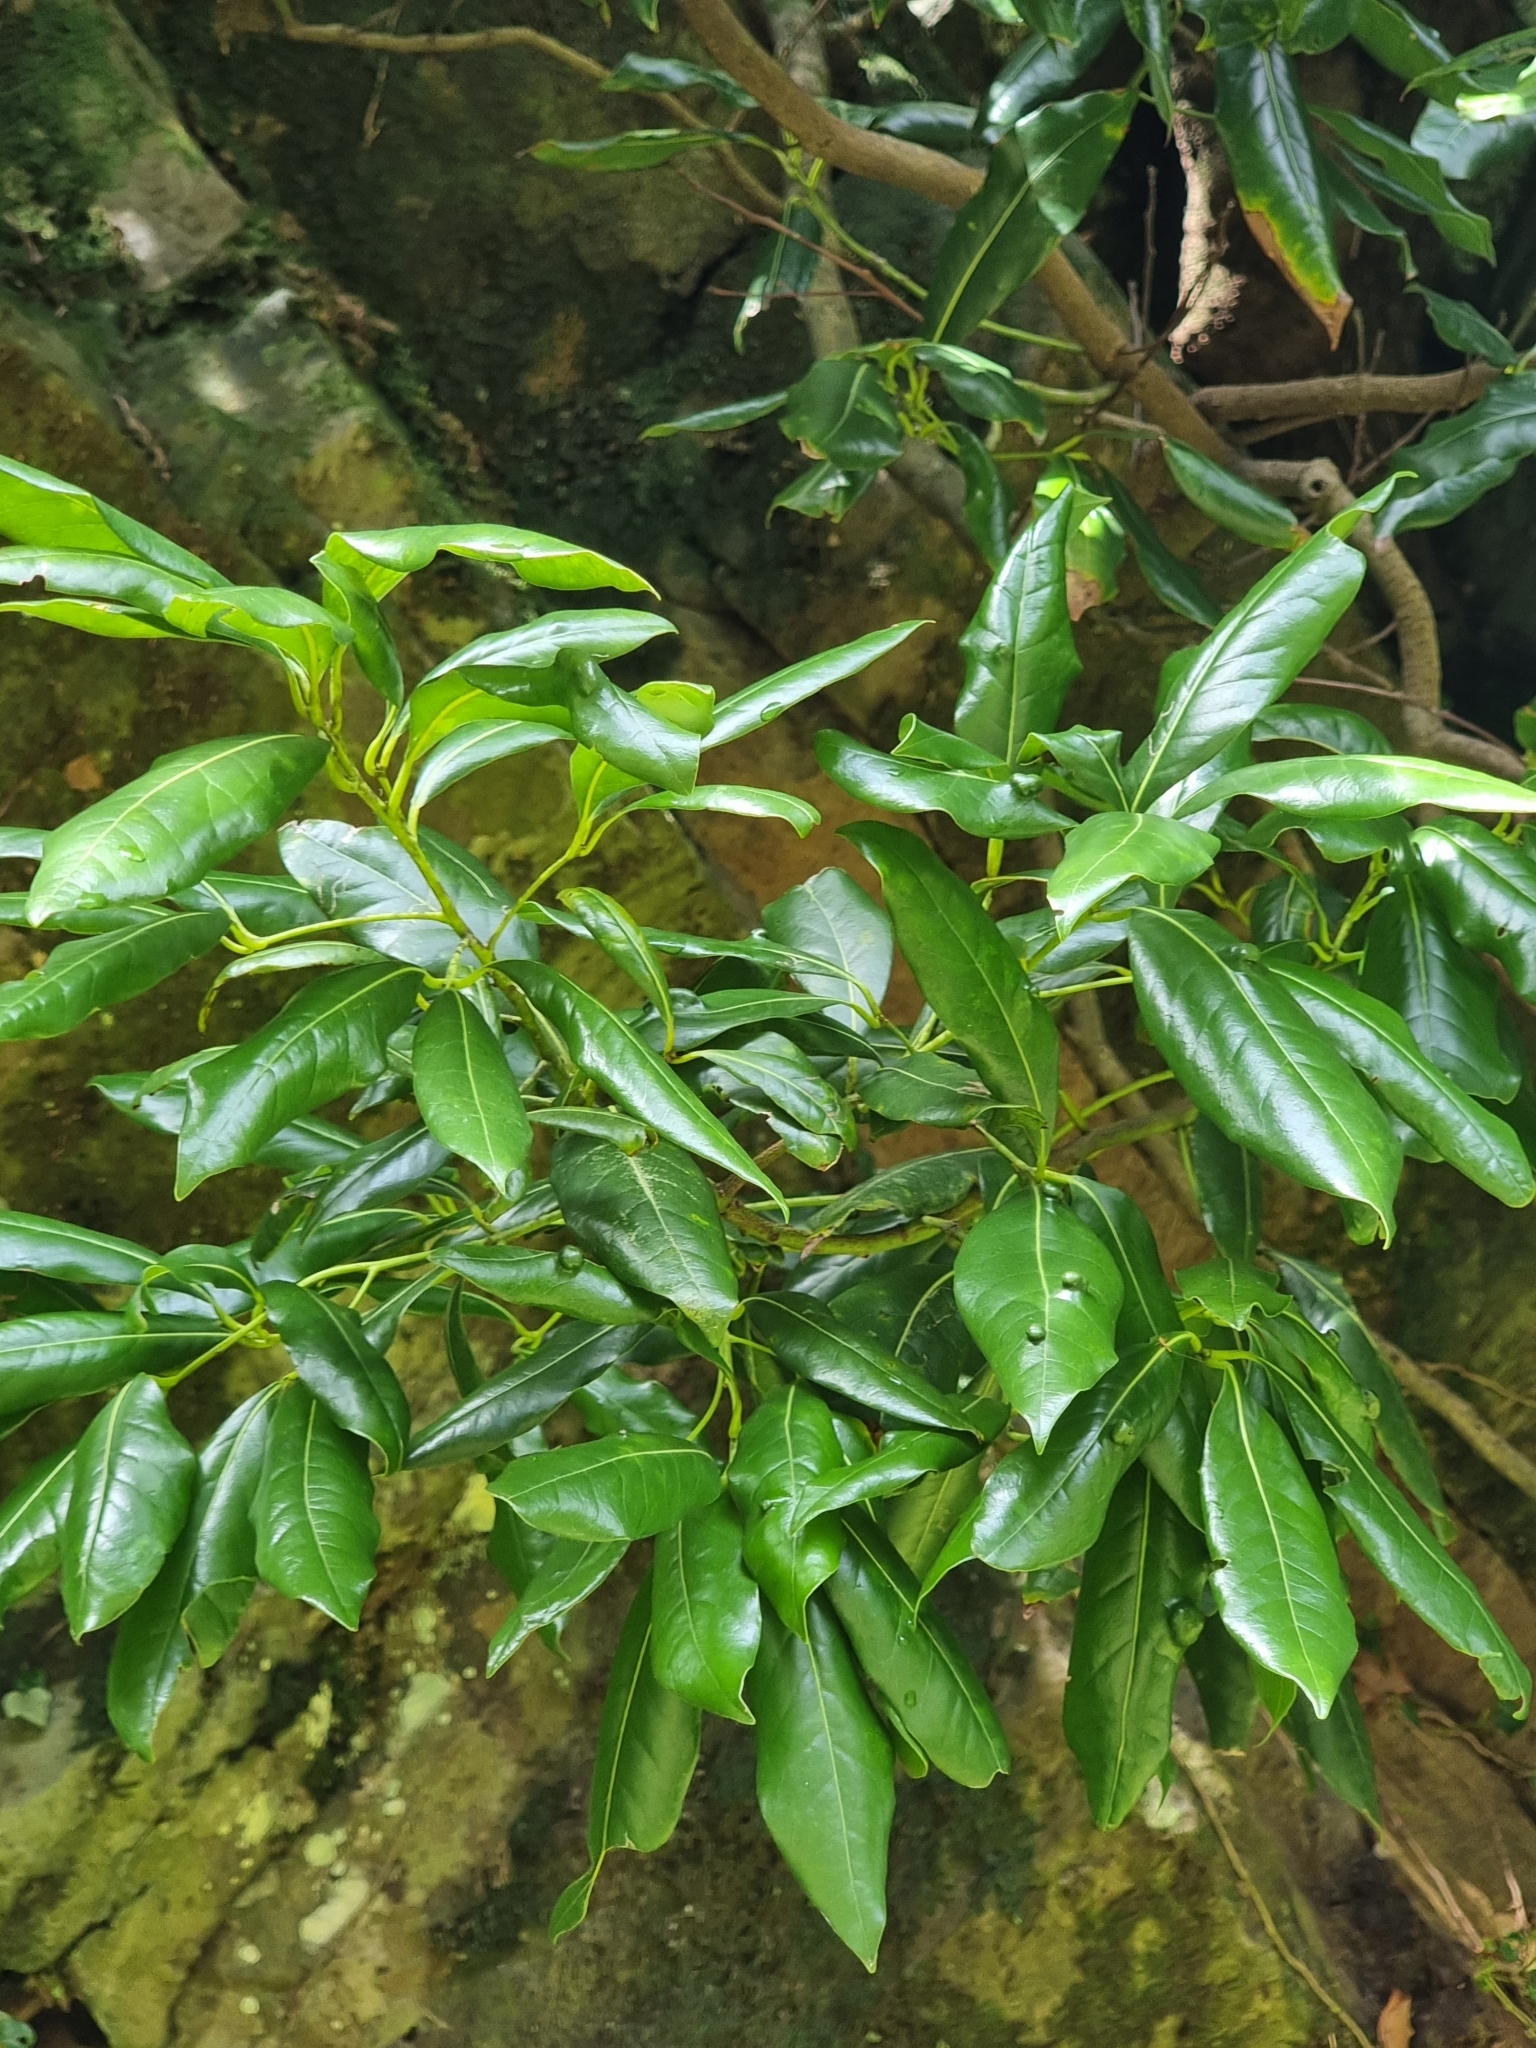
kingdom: Plantae
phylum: Tracheophyta
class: Magnoliopsida
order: Laurales
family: Lauraceae
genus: Apollonias
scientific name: Apollonias barbujana
